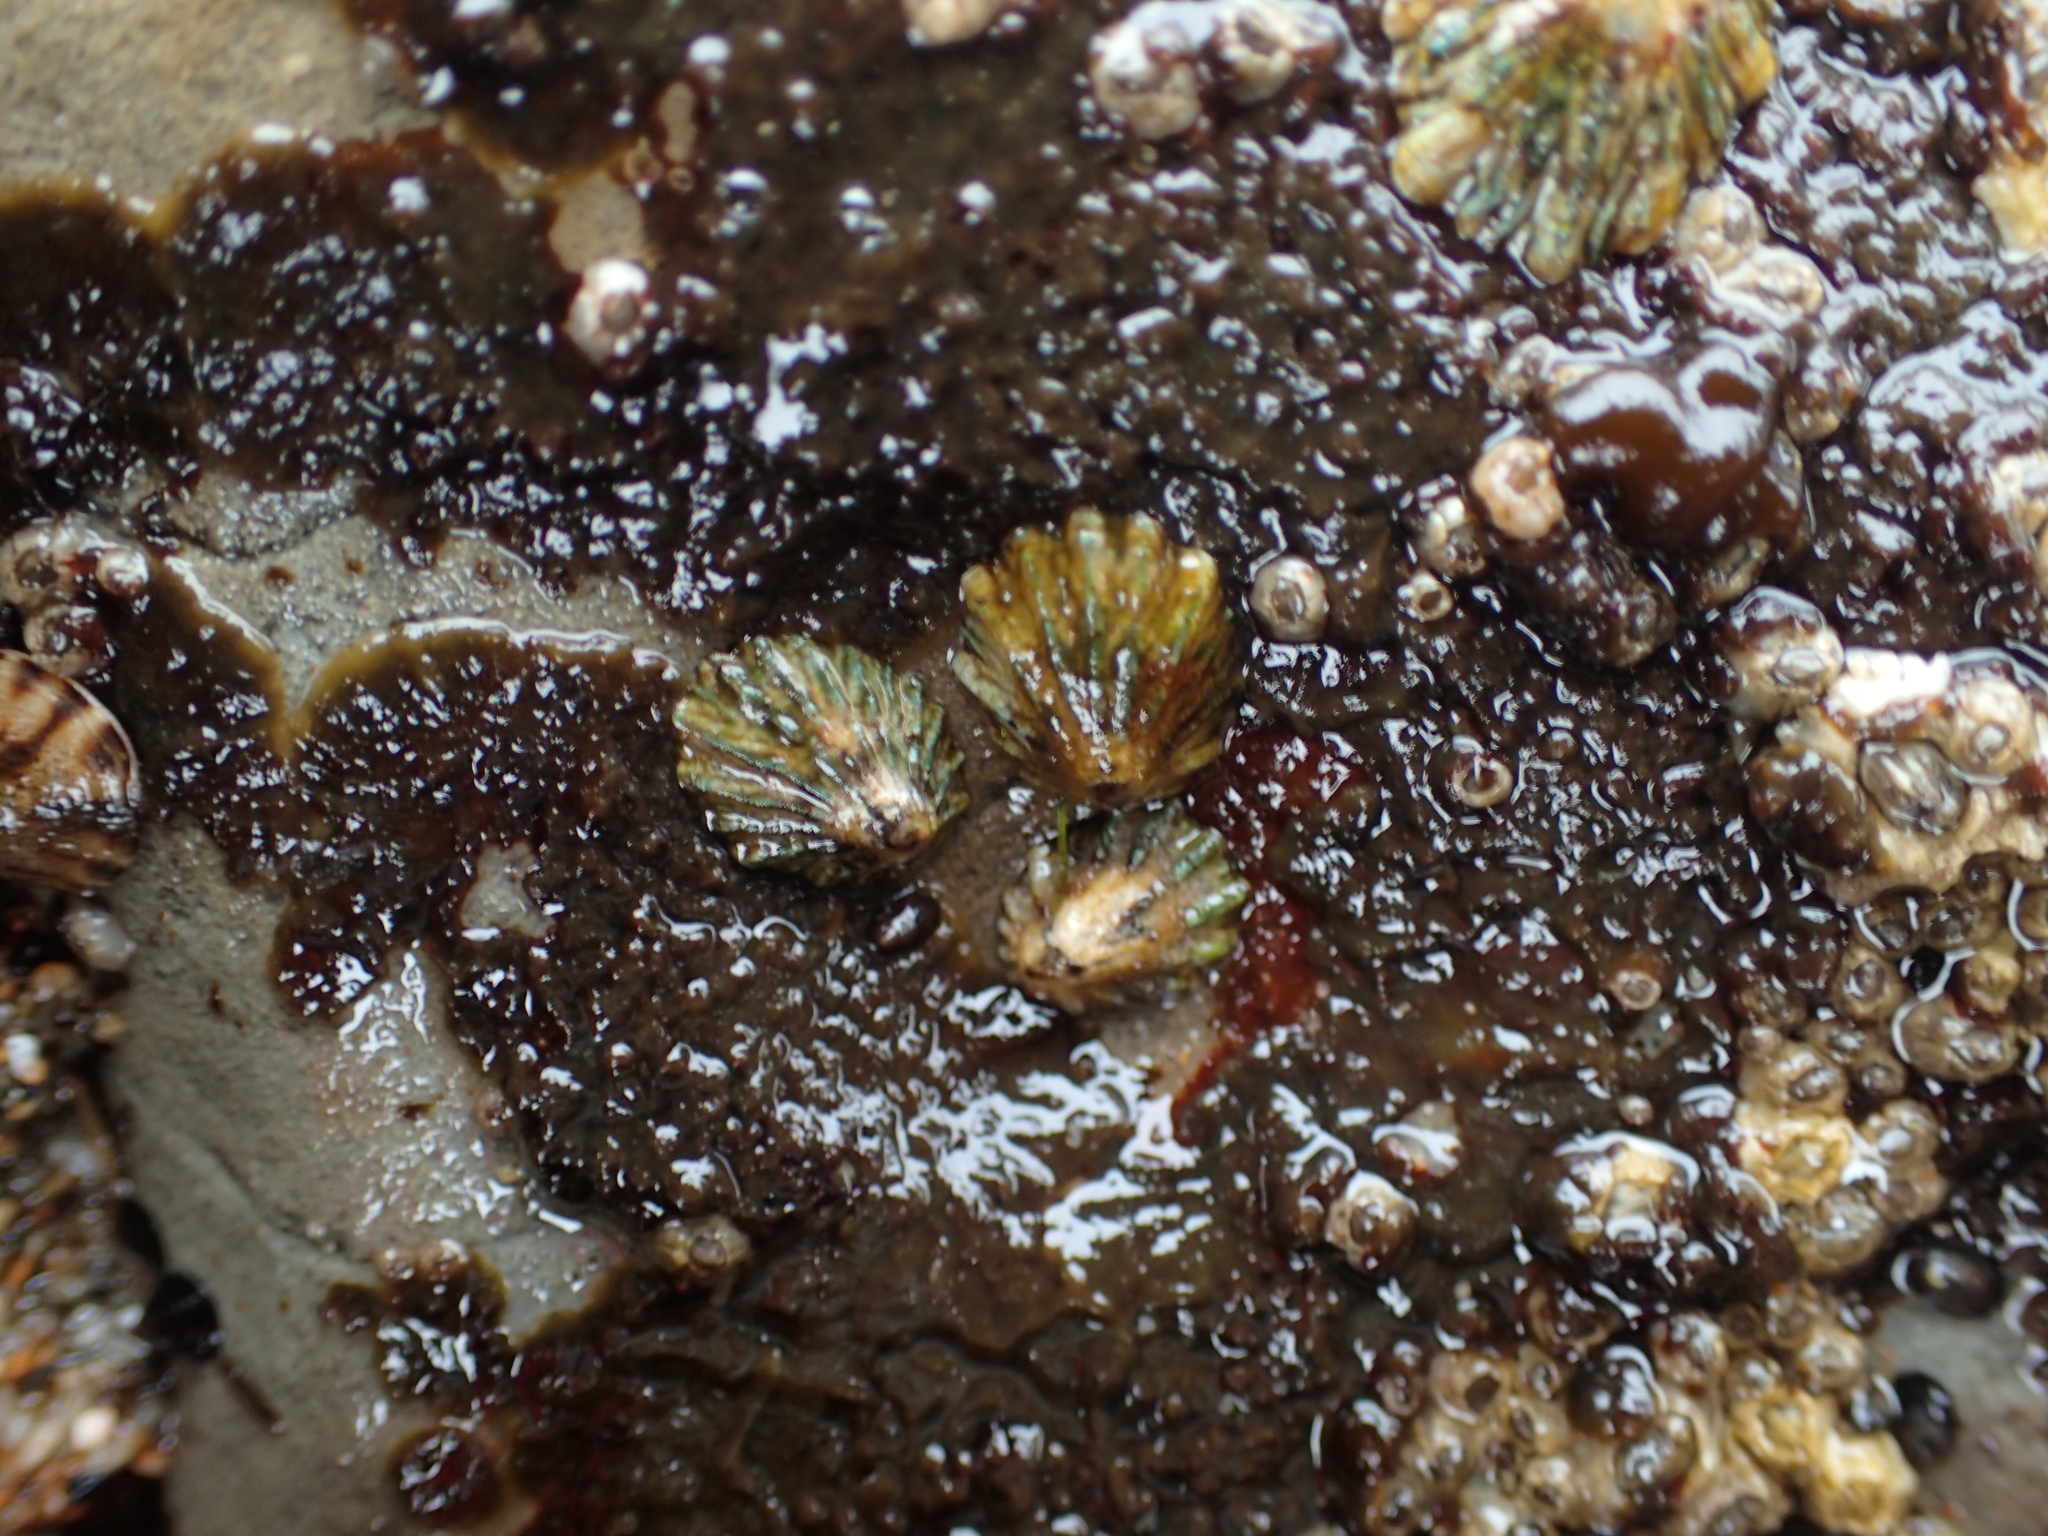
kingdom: Animalia
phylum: Mollusca
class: Gastropoda
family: Lottiidae
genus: Lottia
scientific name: Lottia scabra
